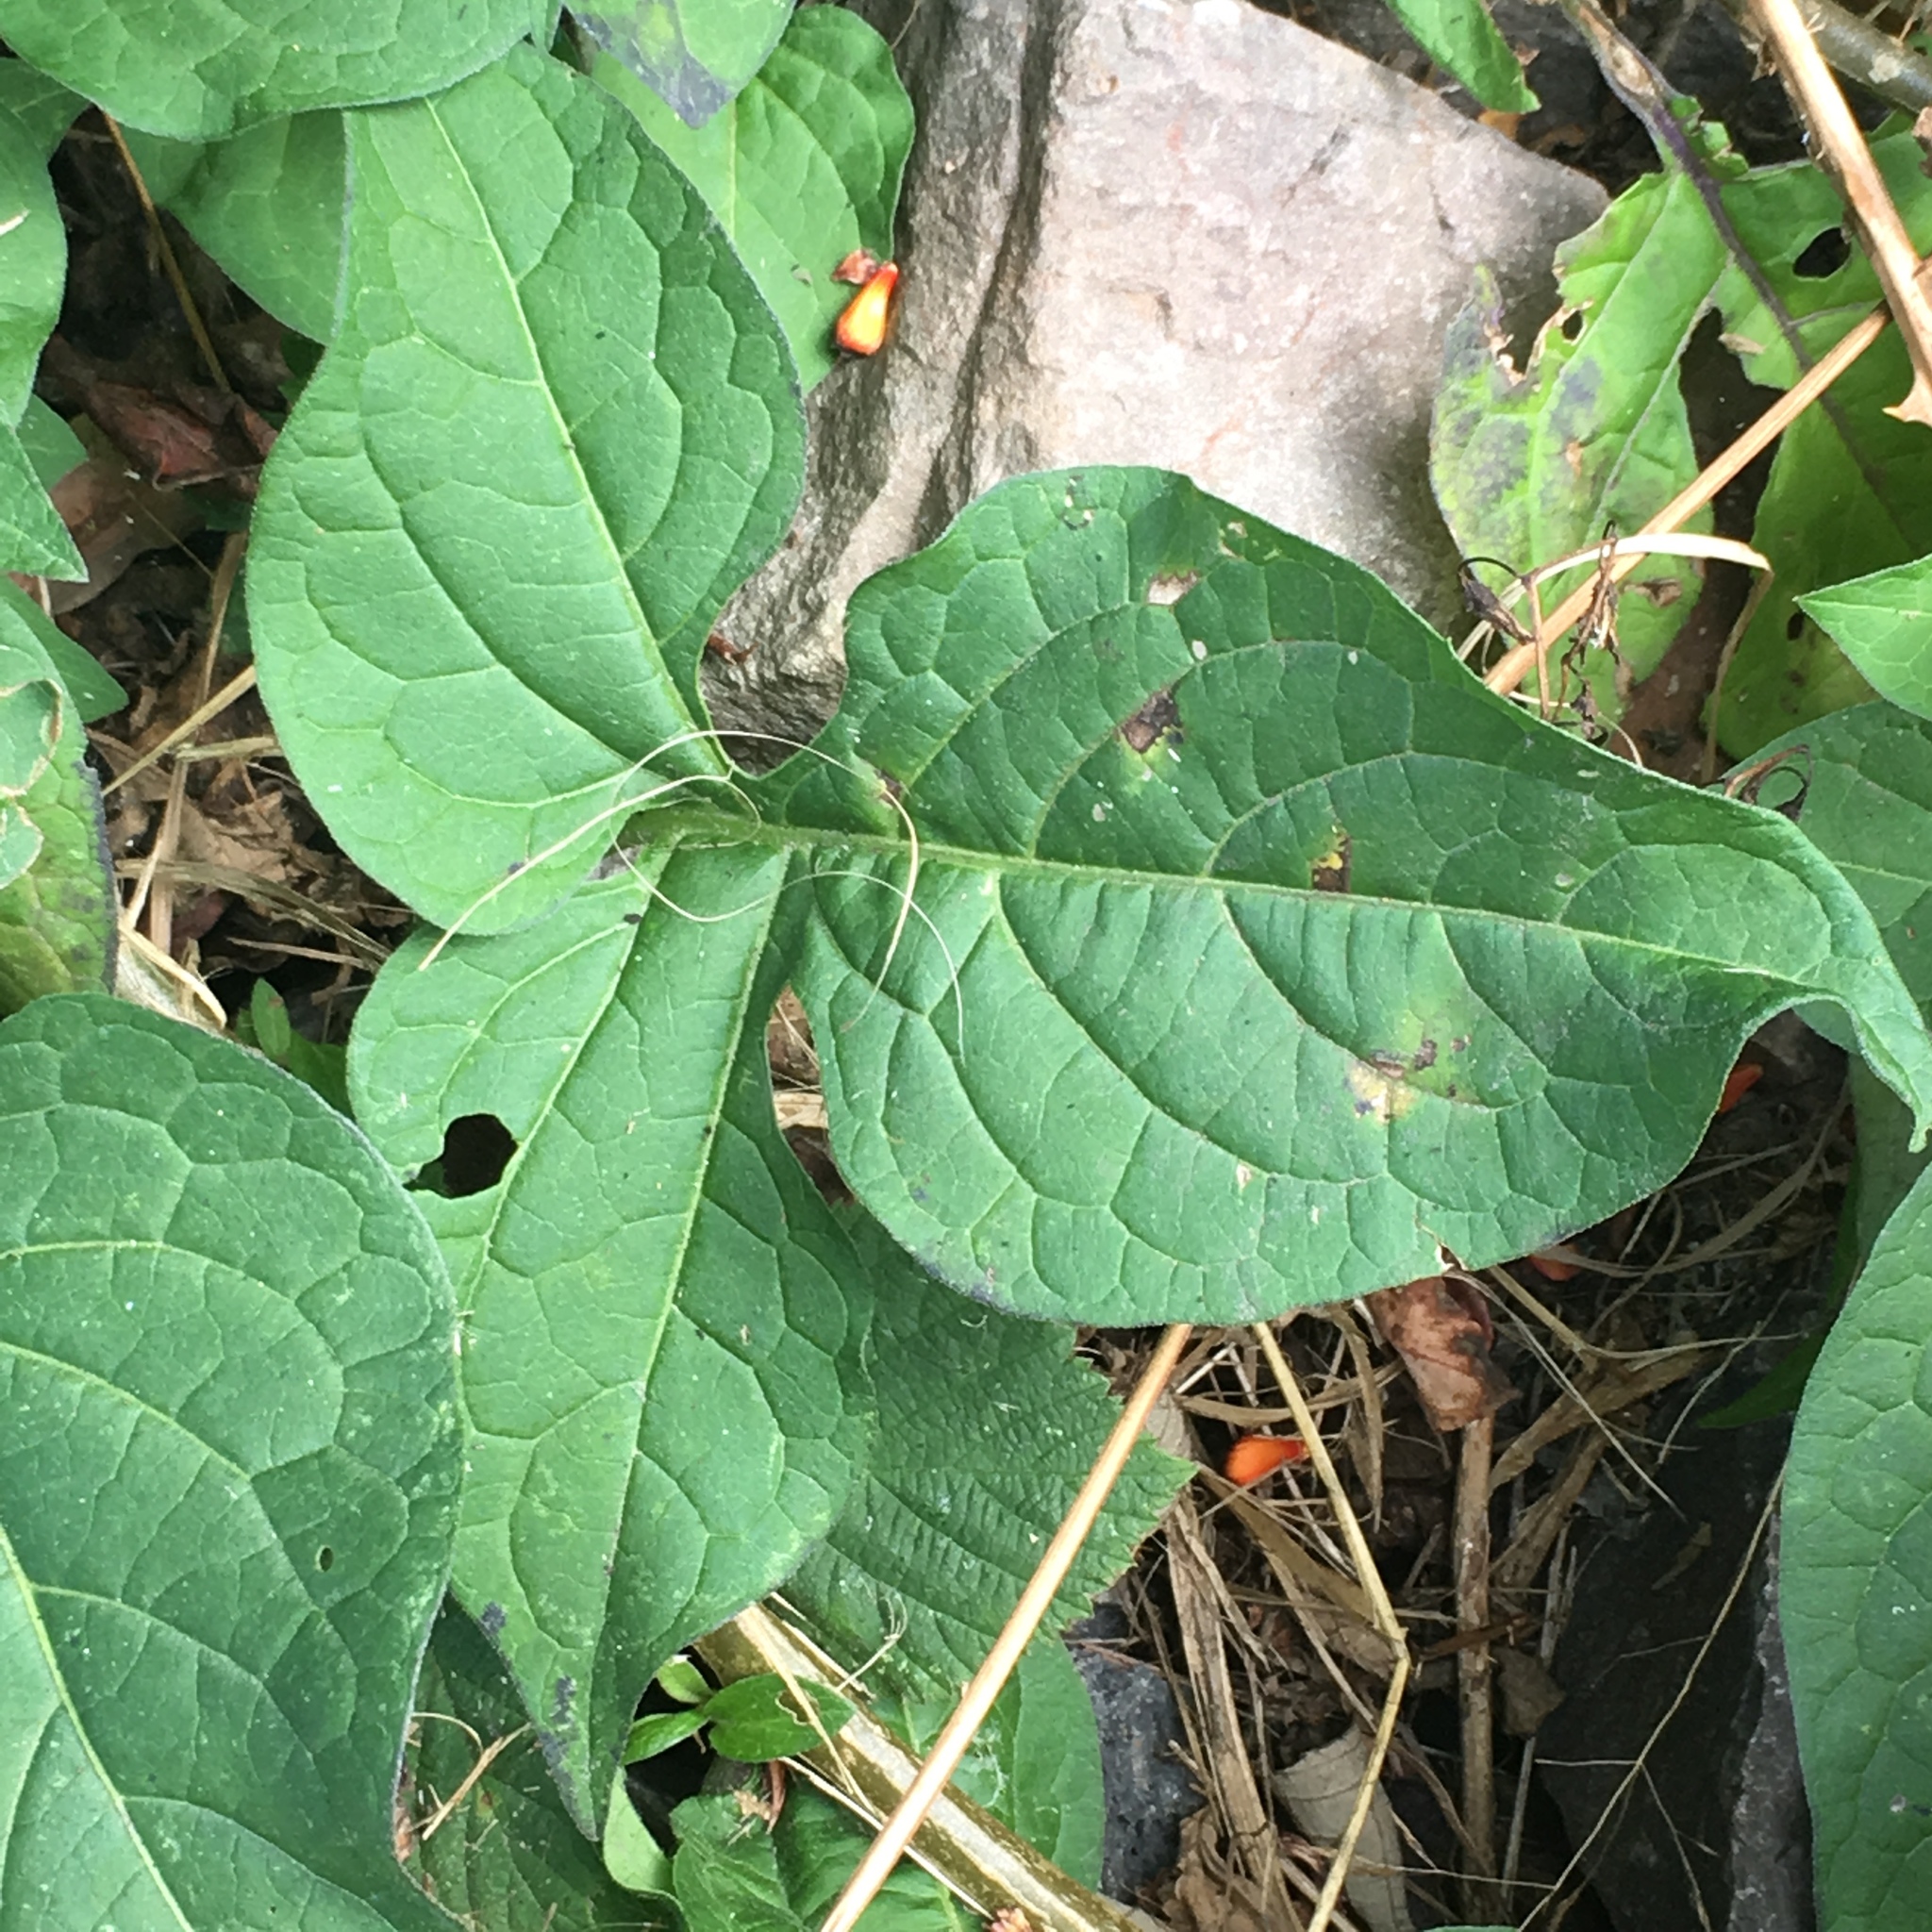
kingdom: Plantae
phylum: Tracheophyta
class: Magnoliopsida
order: Solanales
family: Solanaceae
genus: Solanum
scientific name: Solanum dulcamara
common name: Climbing nightshade
